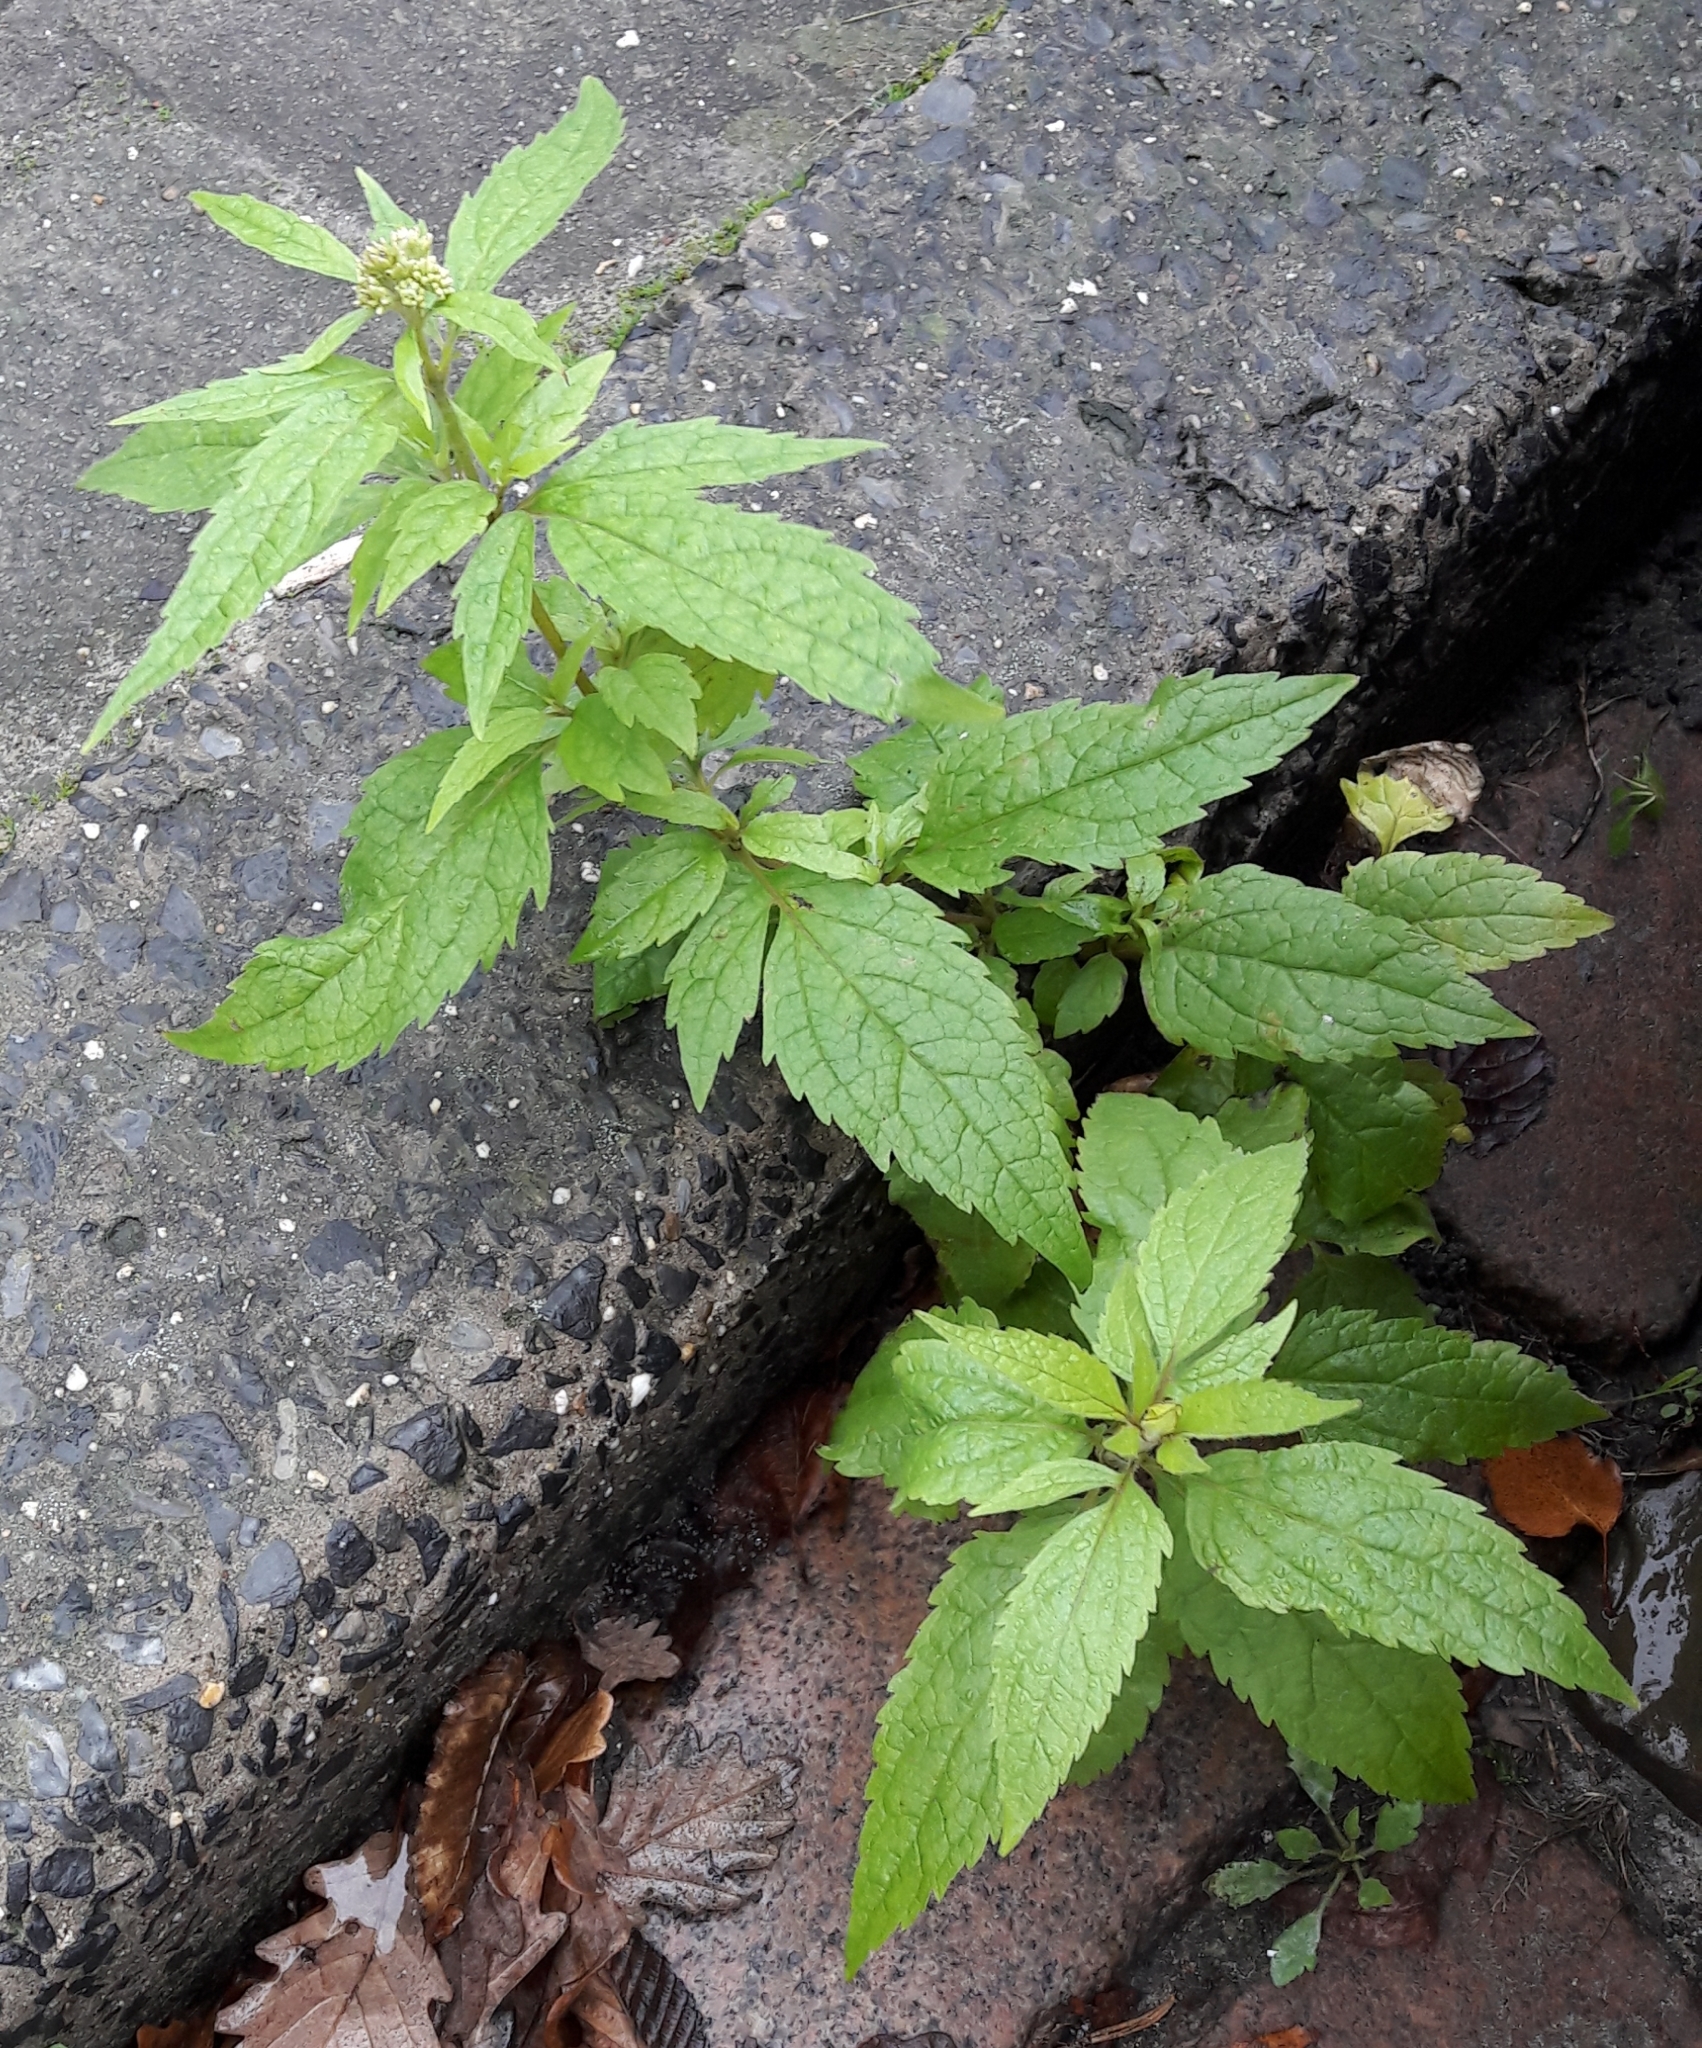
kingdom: Plantae
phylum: Tracheophyta
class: Magnoliopsida
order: Asterales
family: Asteraceae
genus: Eupatorium
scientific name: Eupatorium cannabinum
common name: Hemp-agrimony
